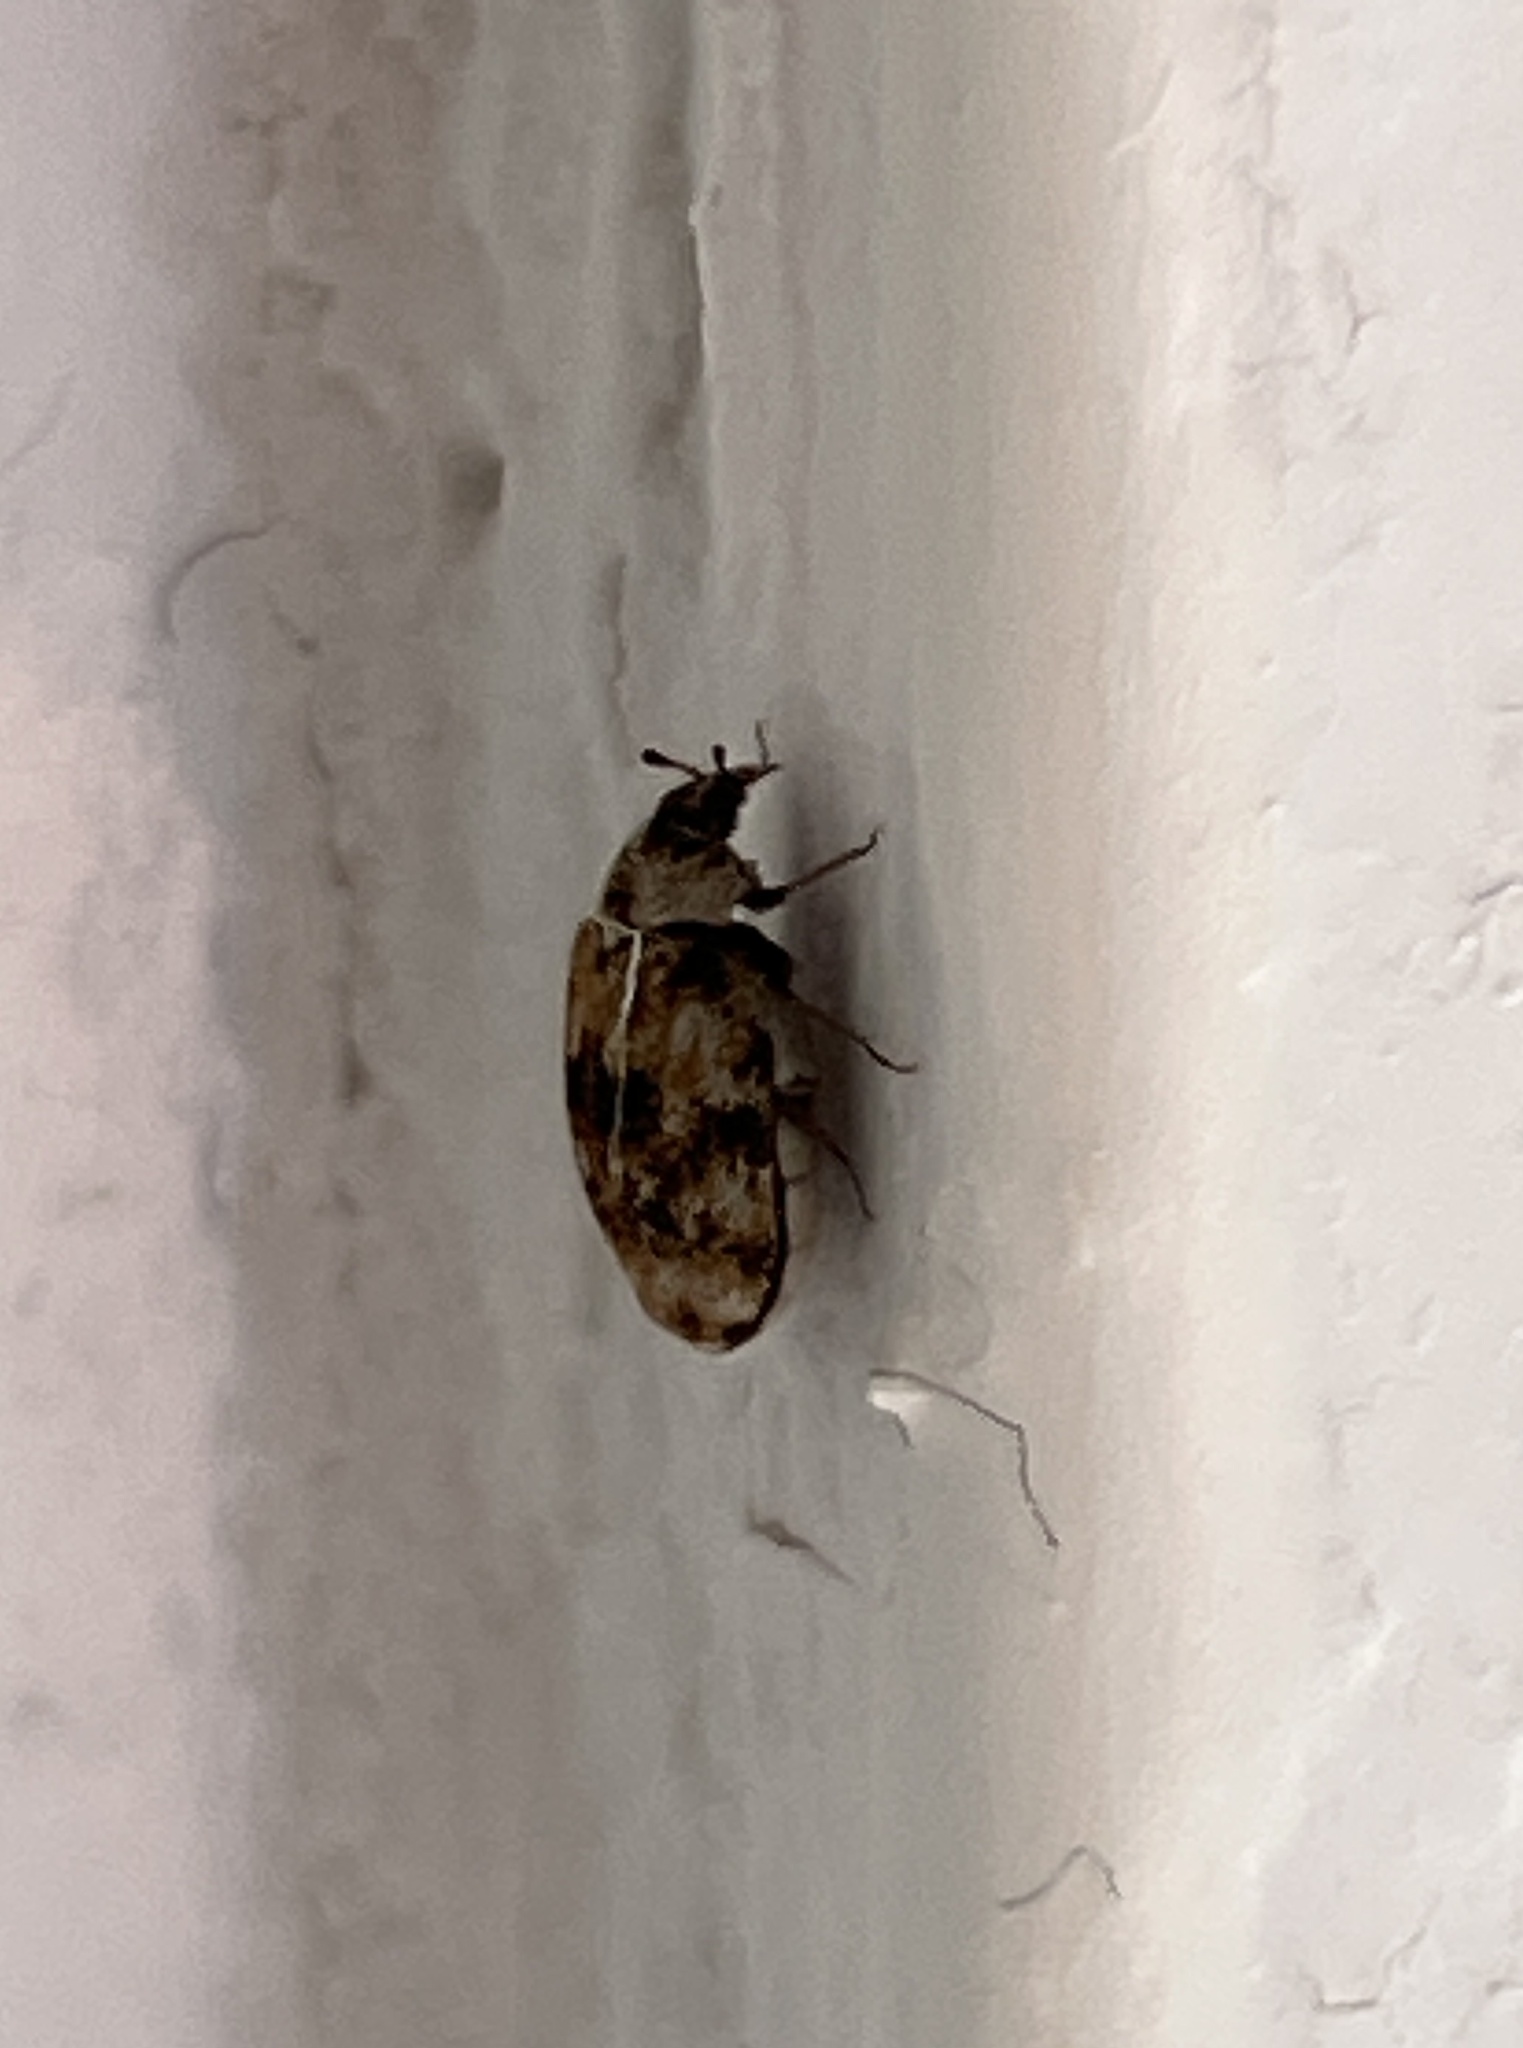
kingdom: Animalia
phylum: Arthropoda
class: Insecta
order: Coleoptera
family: Dermestidae
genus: Anthrenus
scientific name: Anthrenus verbasci
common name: Varied carpet beetle
